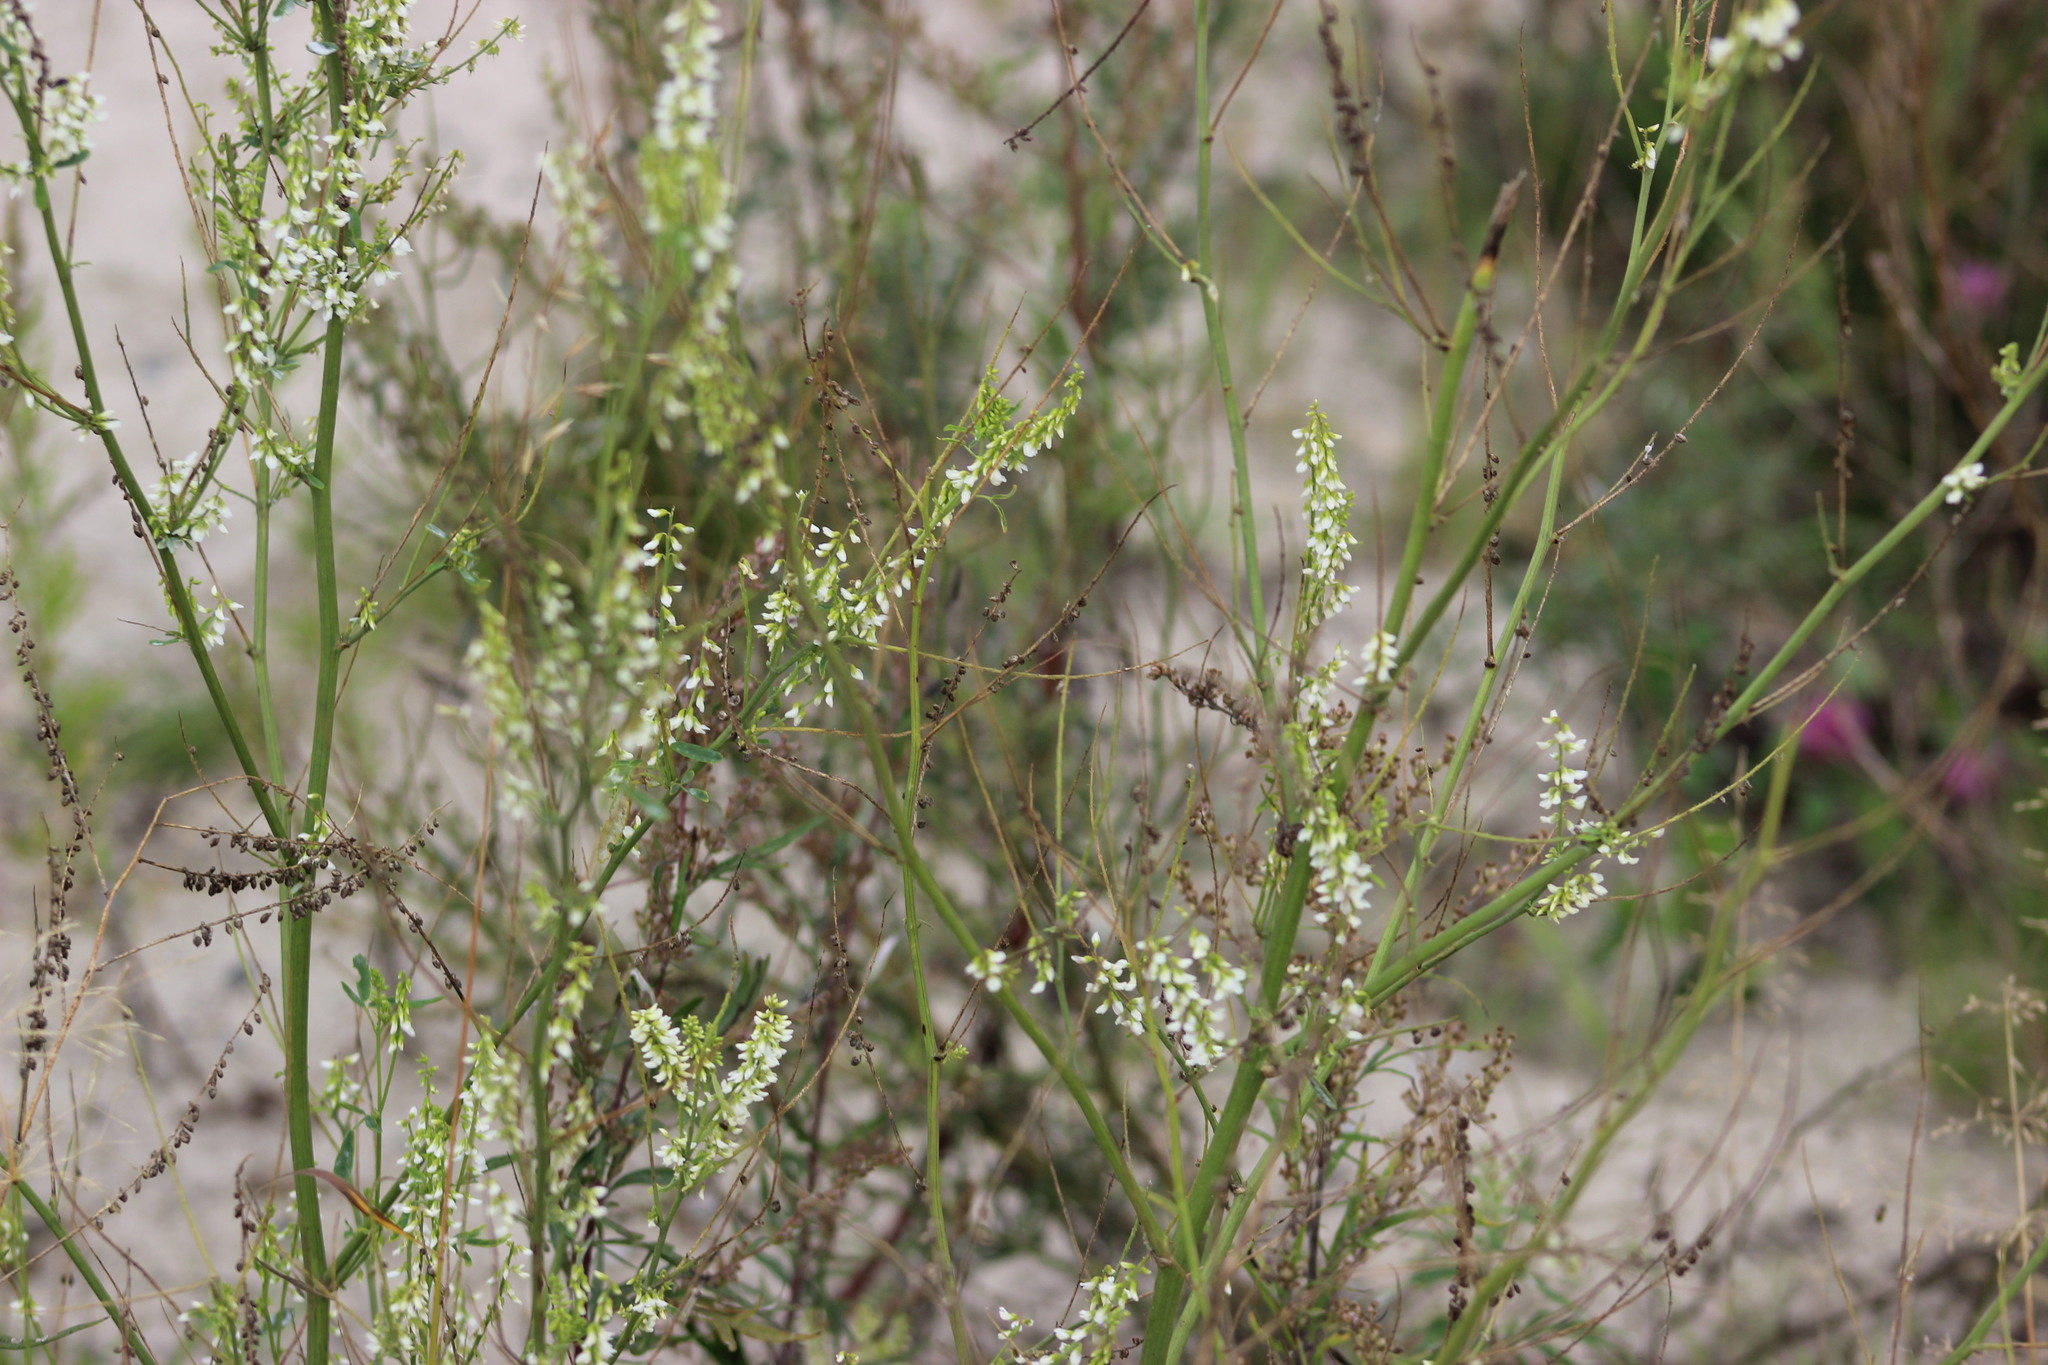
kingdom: Plantae
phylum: Tracheophyta
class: Magnoliopsida
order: Fabales
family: Fabaceae
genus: Melilotus
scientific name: Melilotus albus
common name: White melilot
